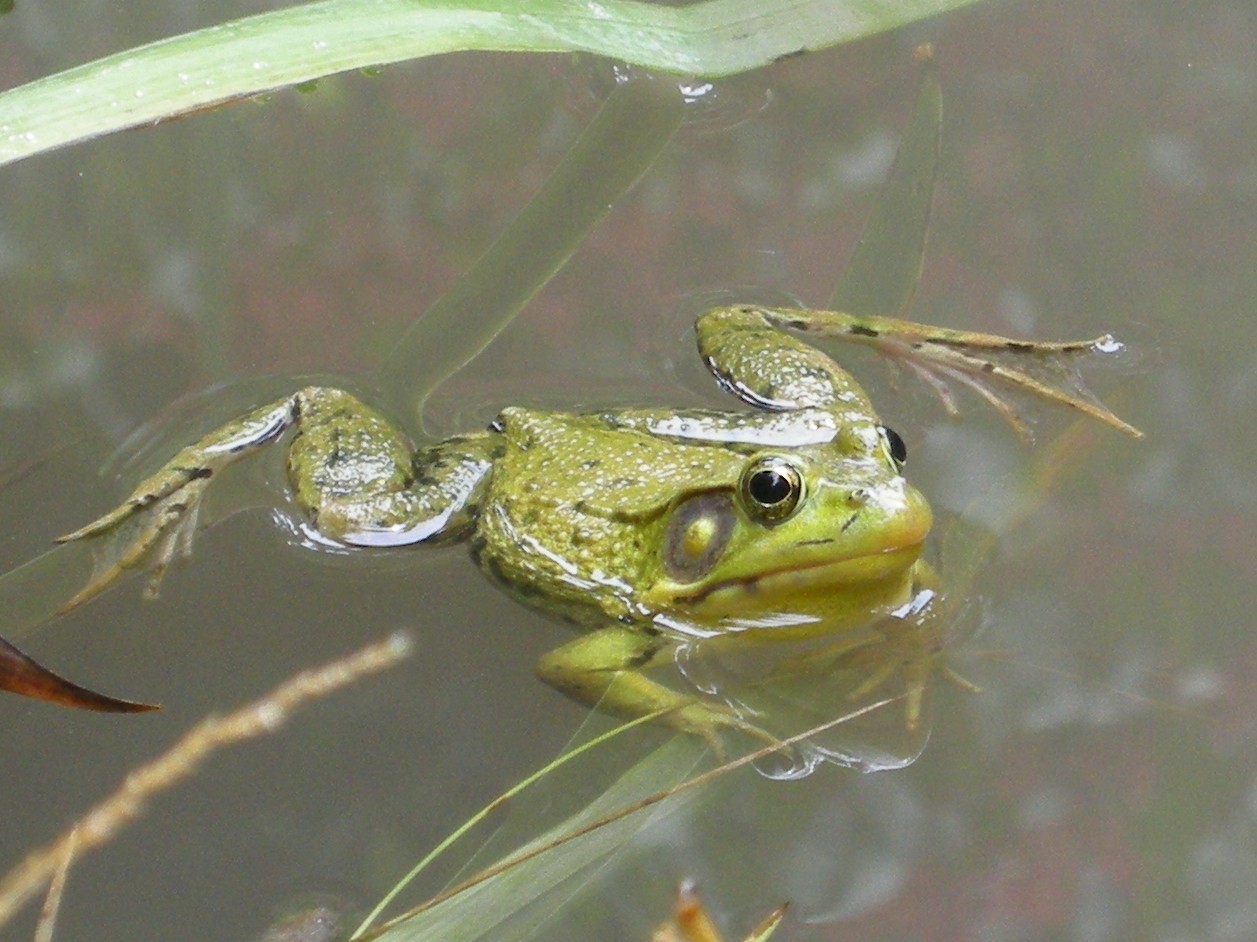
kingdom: Animalia
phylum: Chordata
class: Amphibia
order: Anura
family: Ranidae
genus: Lithobates
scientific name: Lithobates clamitans
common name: Green frog
